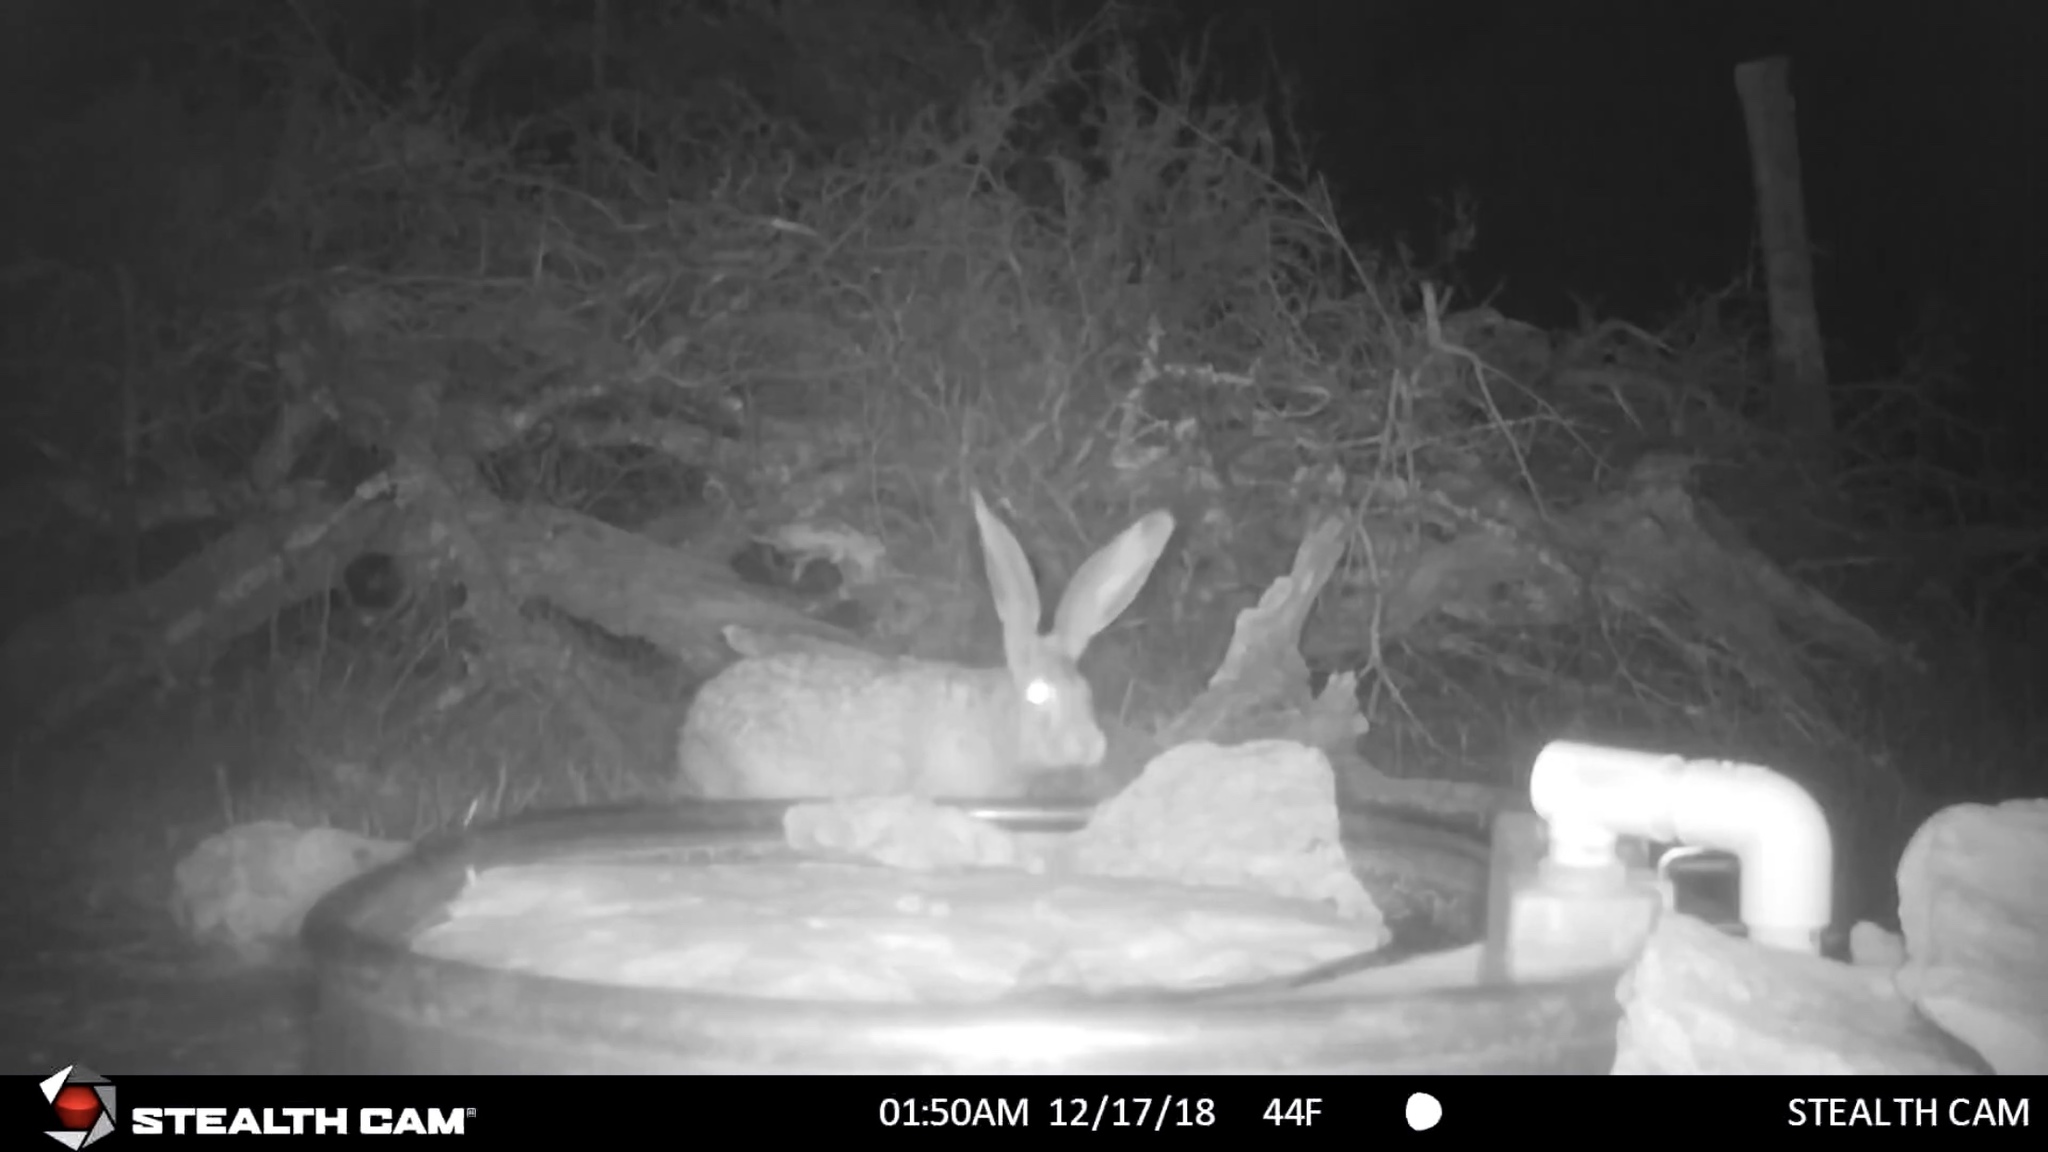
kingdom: Animalia
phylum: Chordata
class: Mammalia
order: Lagomorpha
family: Leporidae
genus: Lepus
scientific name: Lepus californicus
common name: Black-tailed jackrabbit
